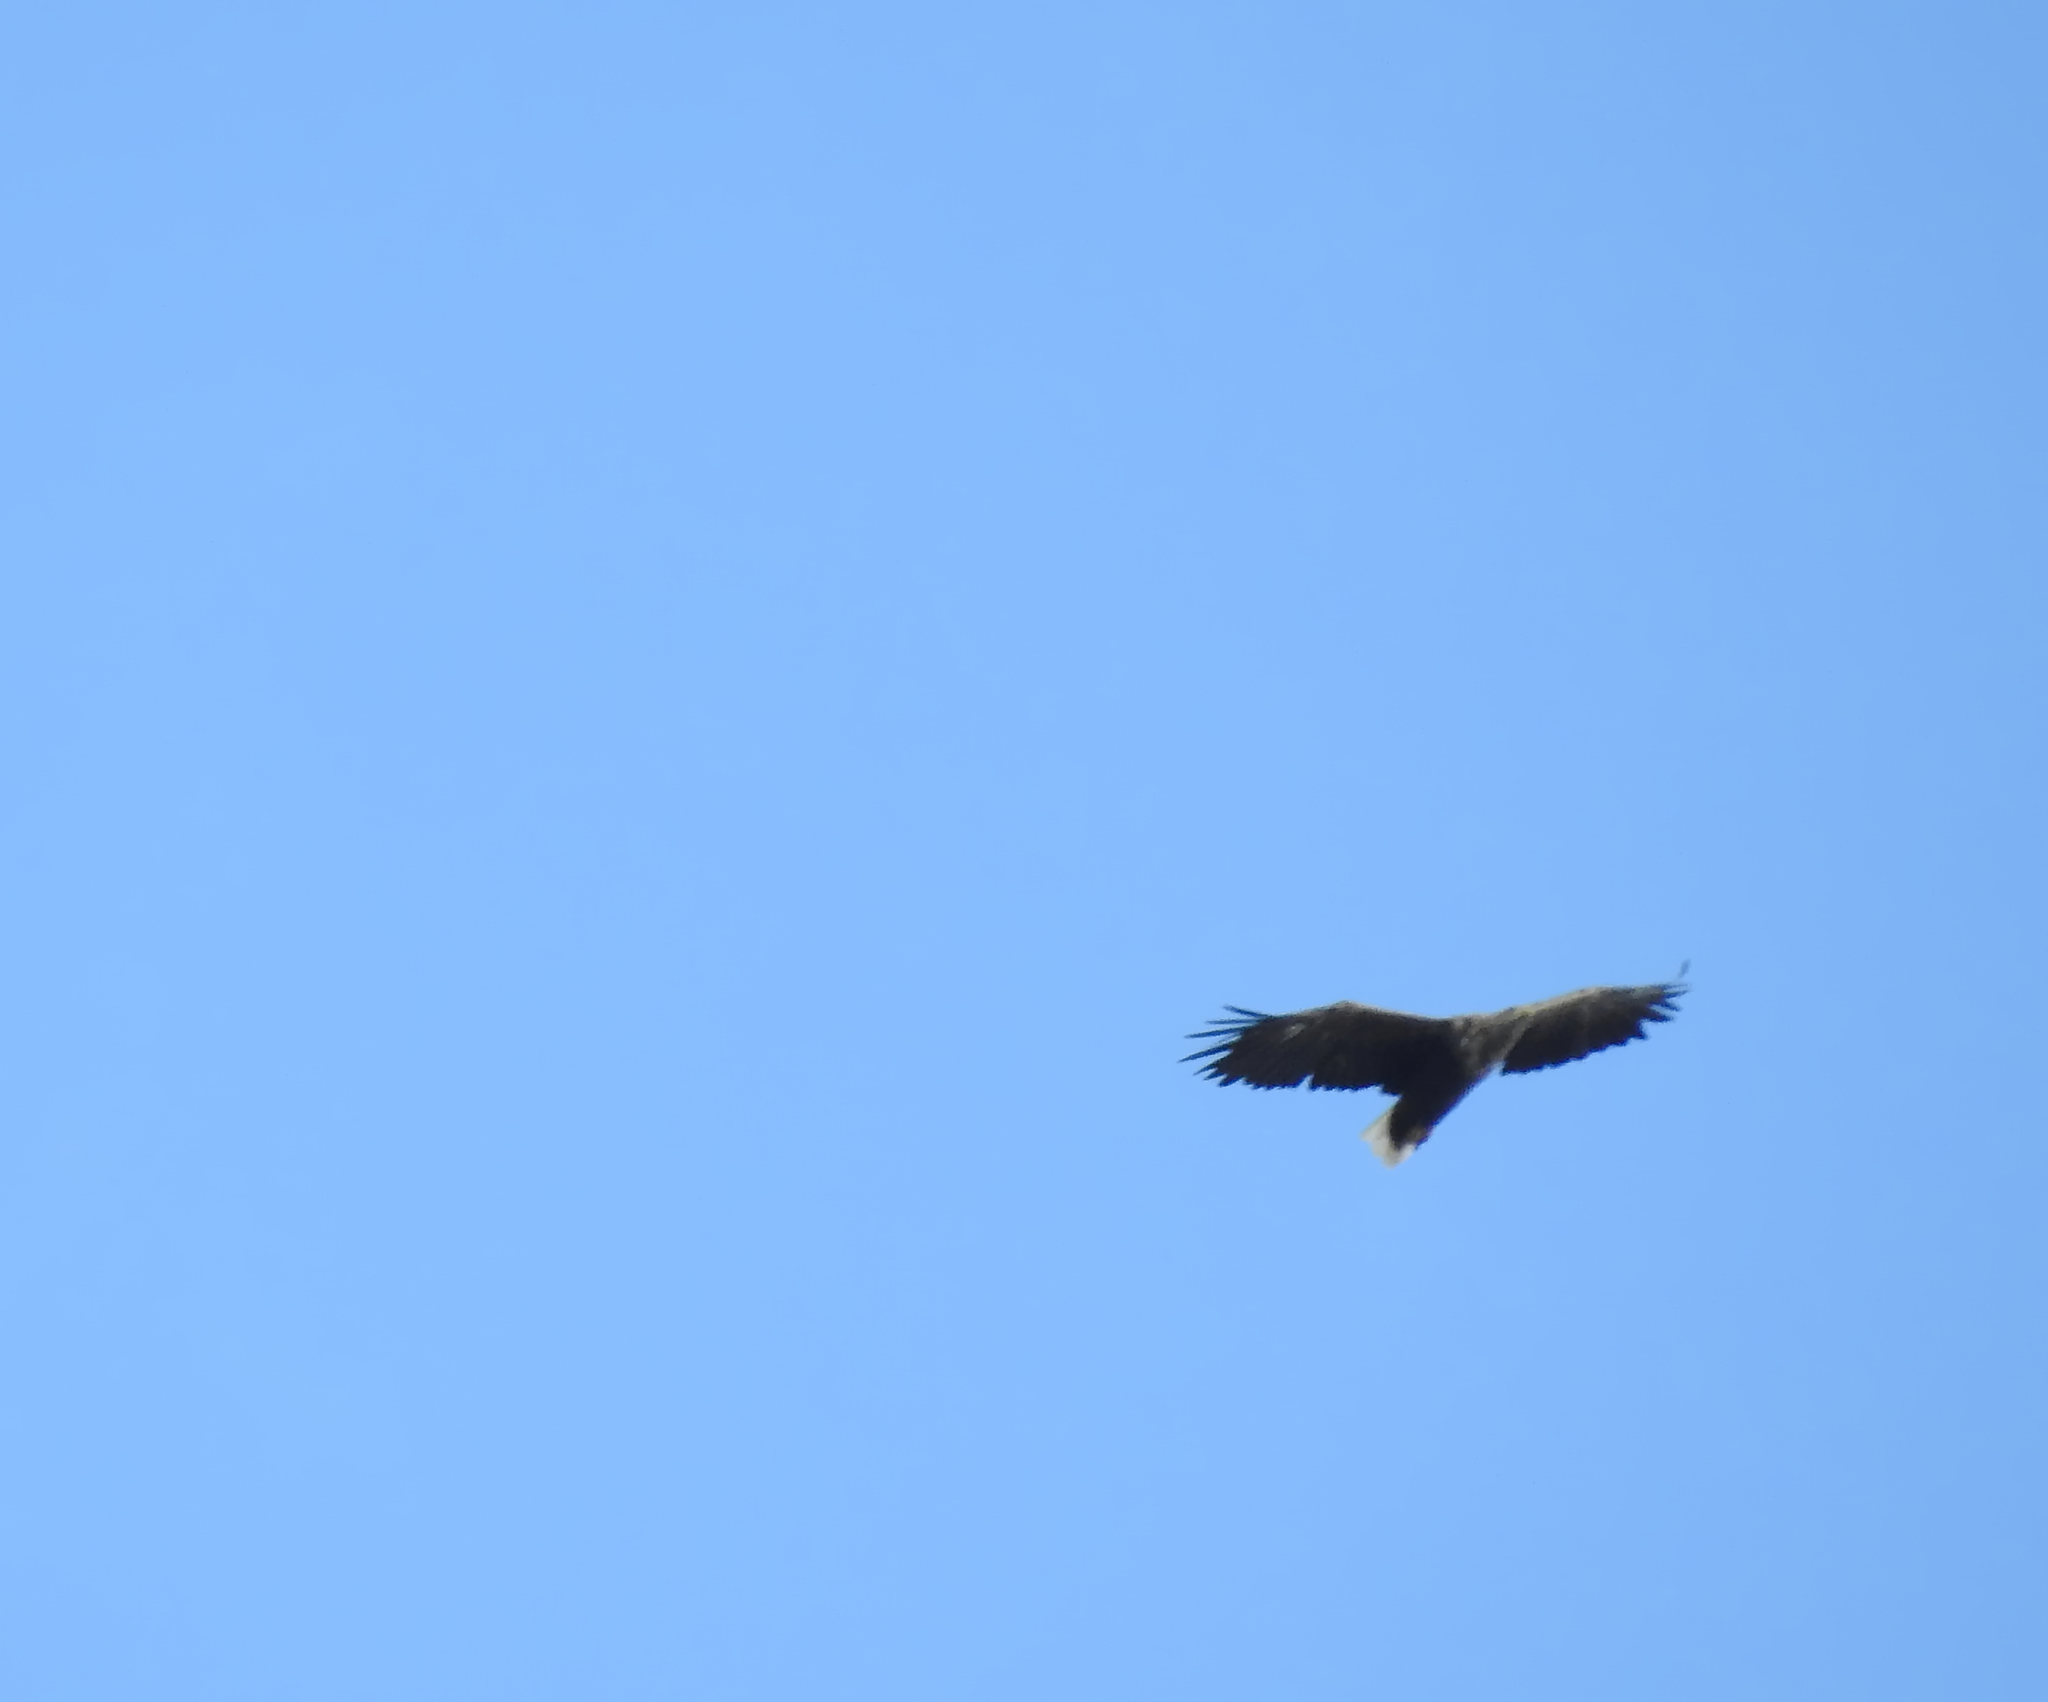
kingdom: Animalia
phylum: Chordata
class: Aves
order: Accipitriformes
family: Accipitridae
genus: Haliaeetus
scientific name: Haliaeetus albicilla
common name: White-tailed eagle
